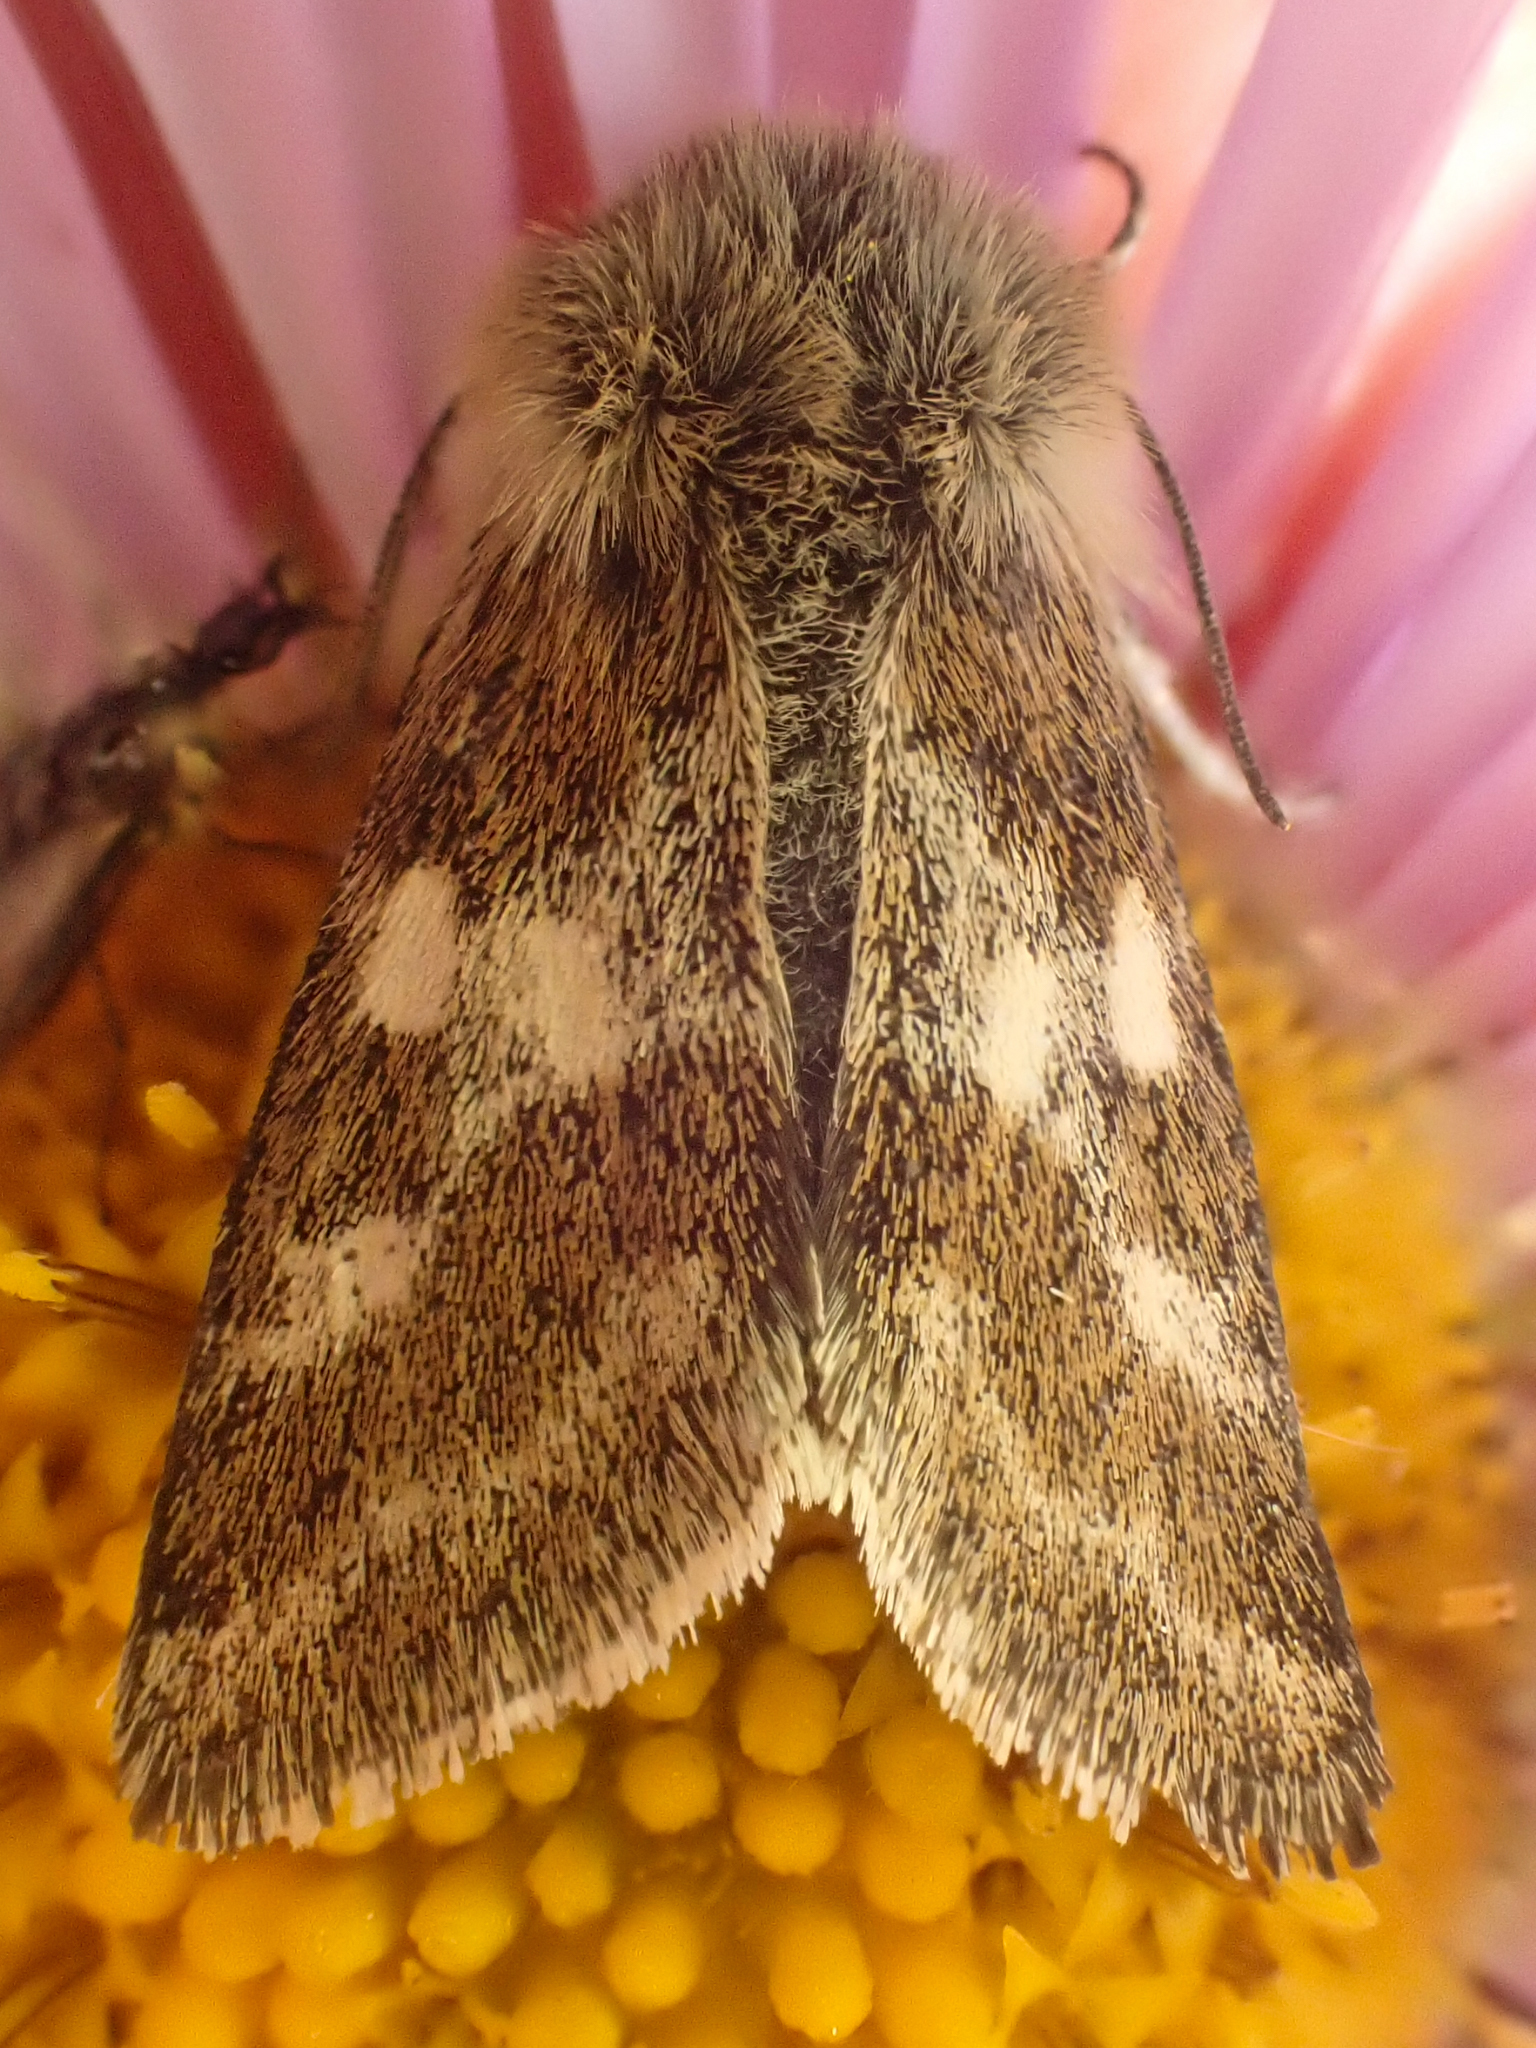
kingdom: Animalia
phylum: Arthropoda
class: Insecta
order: Lepidoptera
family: Noctuidae
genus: Schinia
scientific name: Schinia villosa
